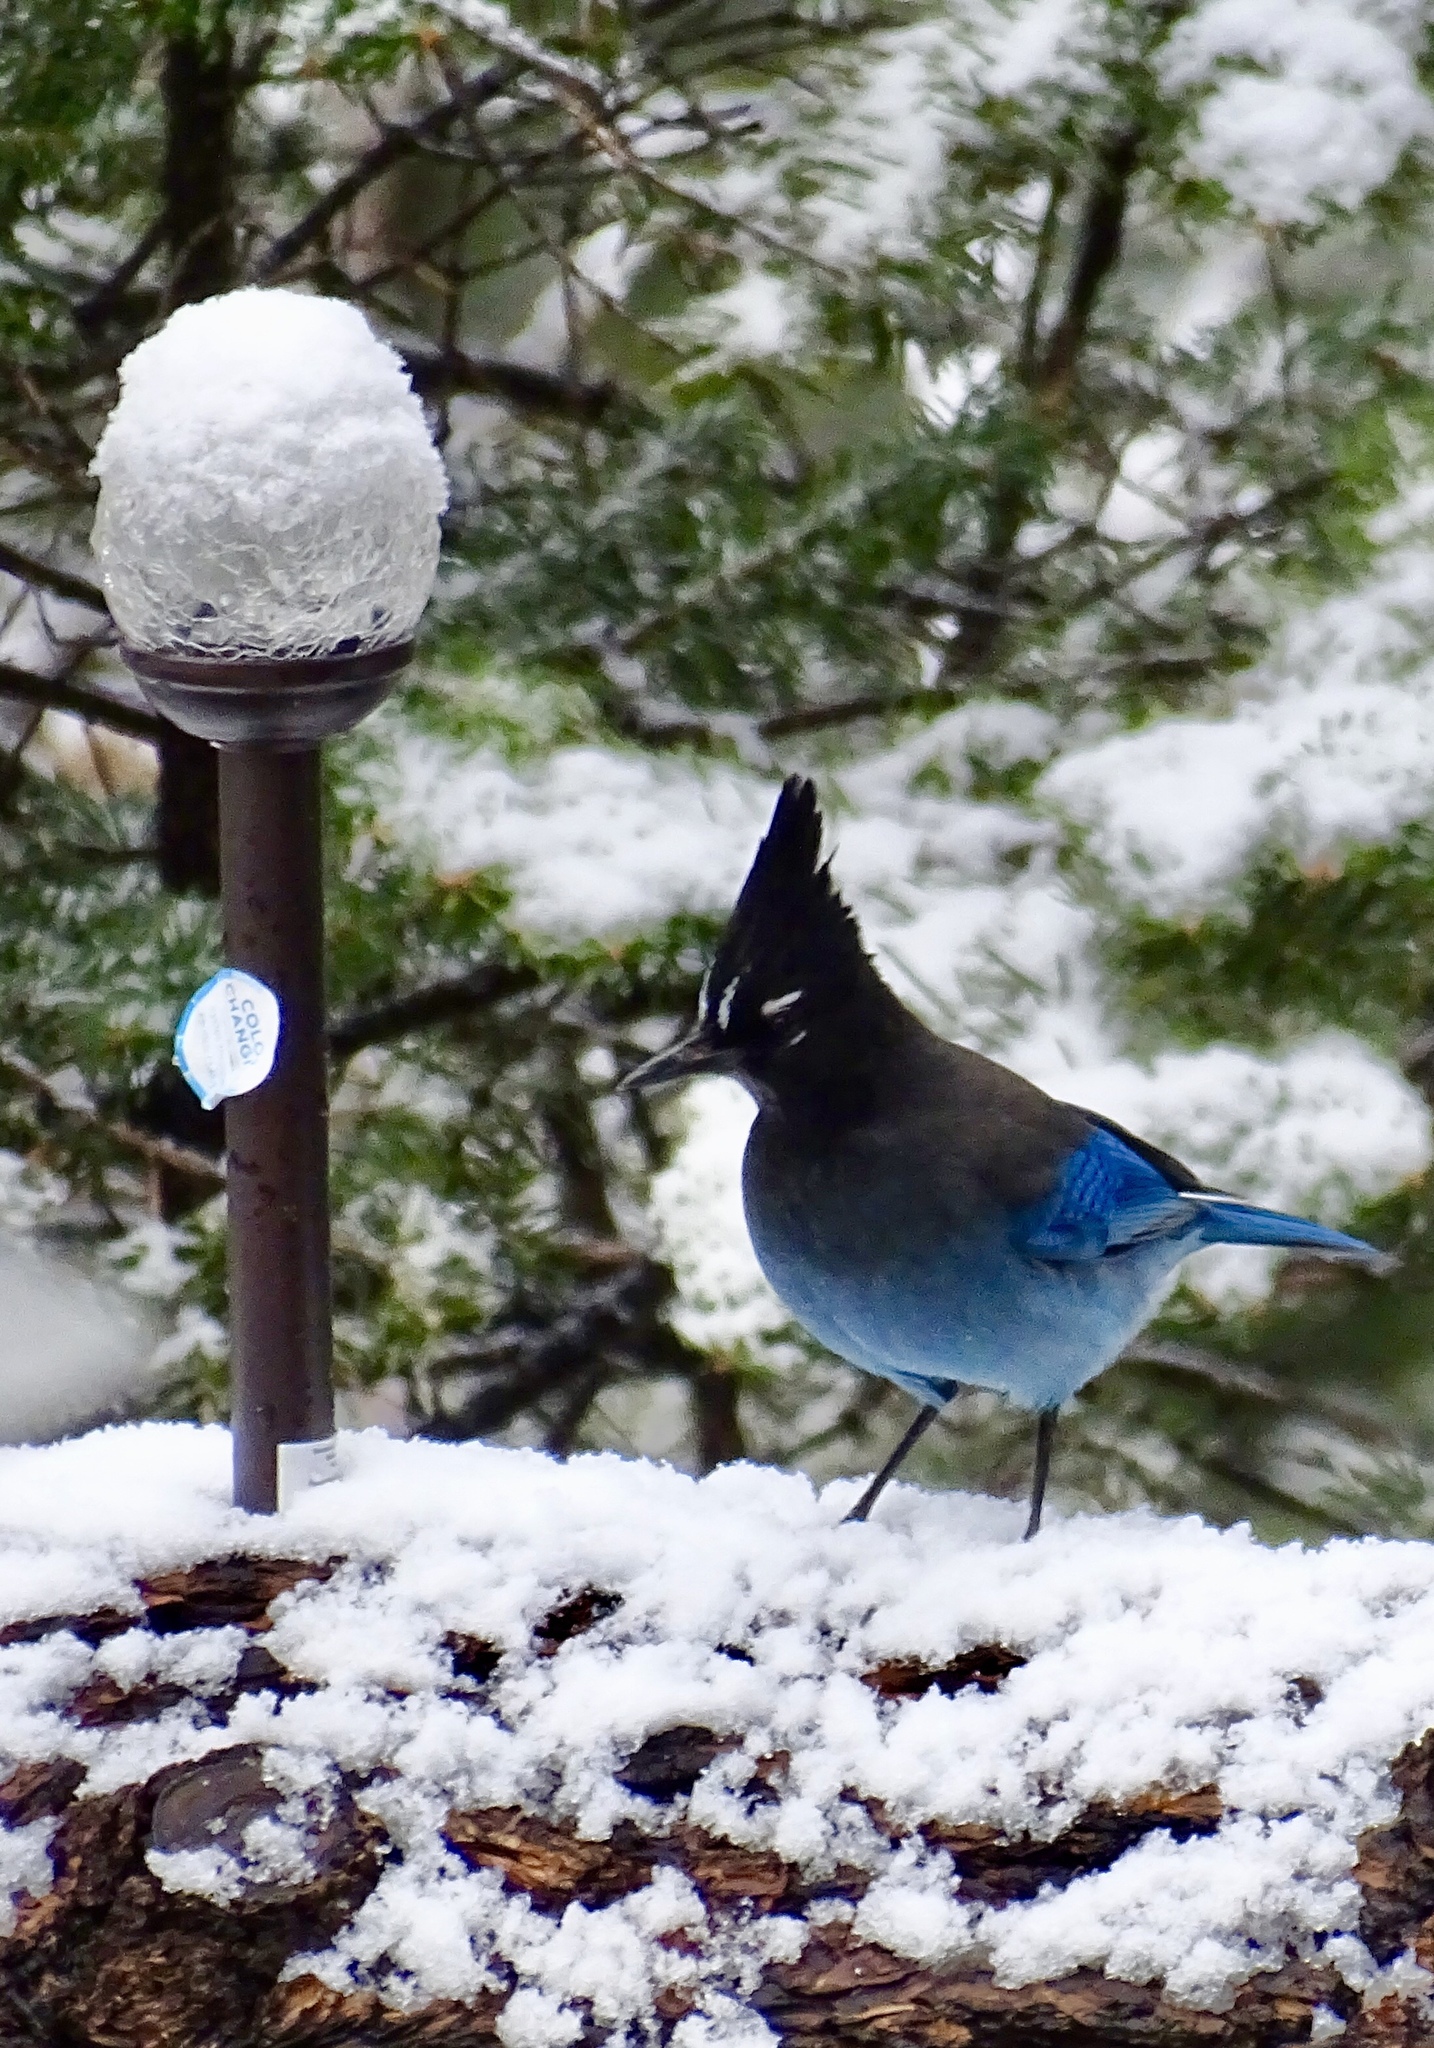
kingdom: Animalia
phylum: Chordata
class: Aves
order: Passeriformes
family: Corvidae
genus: Cyanocitta
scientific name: Cyanocitta stelleri
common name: Steller's jay
